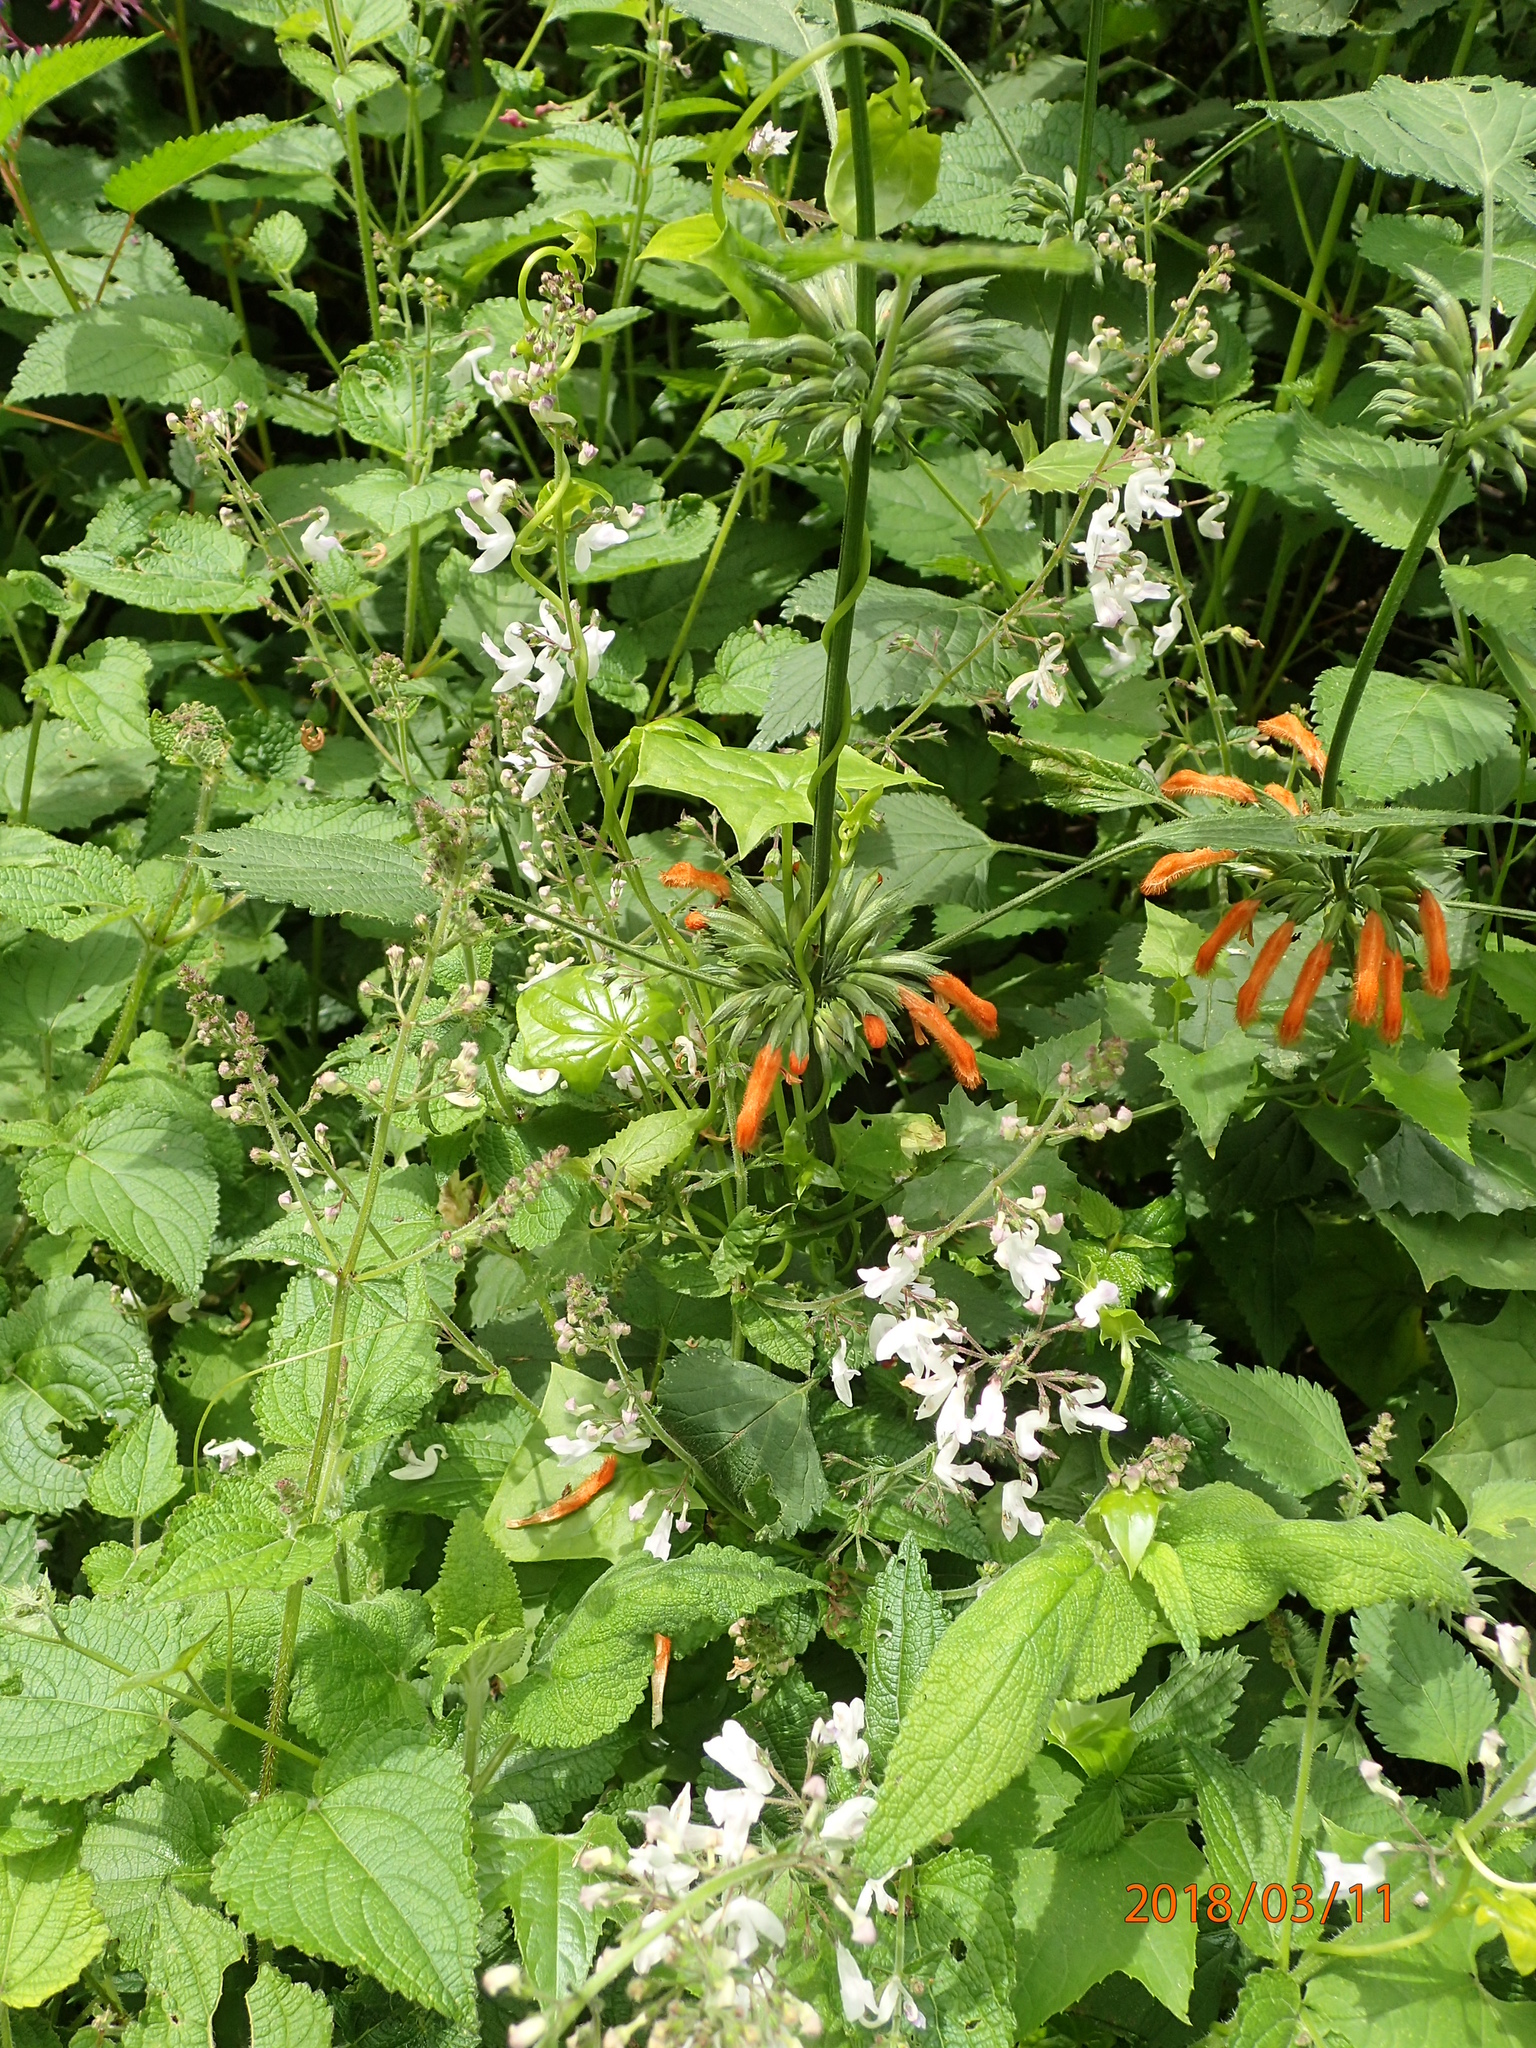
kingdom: Plantae
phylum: Tracheophyta
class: Magnoliopsida
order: Lamiales
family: Lamiaceae
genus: Leonotis
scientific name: Leonotis ocymifolia
